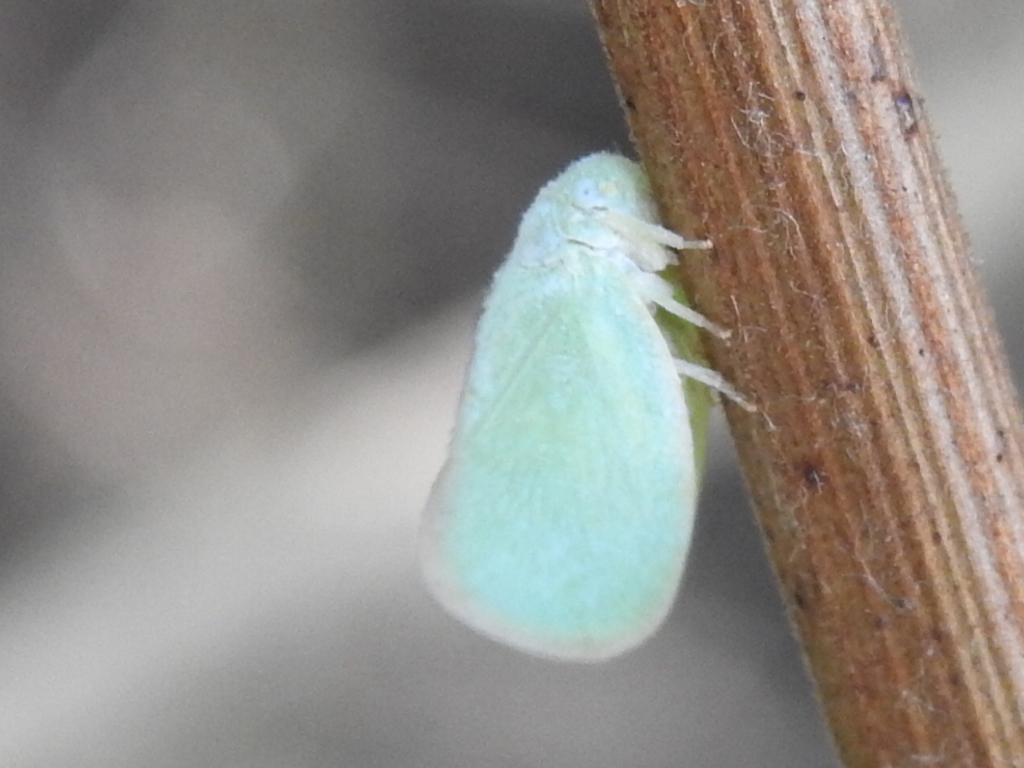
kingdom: Animalia
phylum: Arthropoda
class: Insecta
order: Hemiptera
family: Flatidae
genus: Ormenoides
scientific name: Ormenoides venusta
